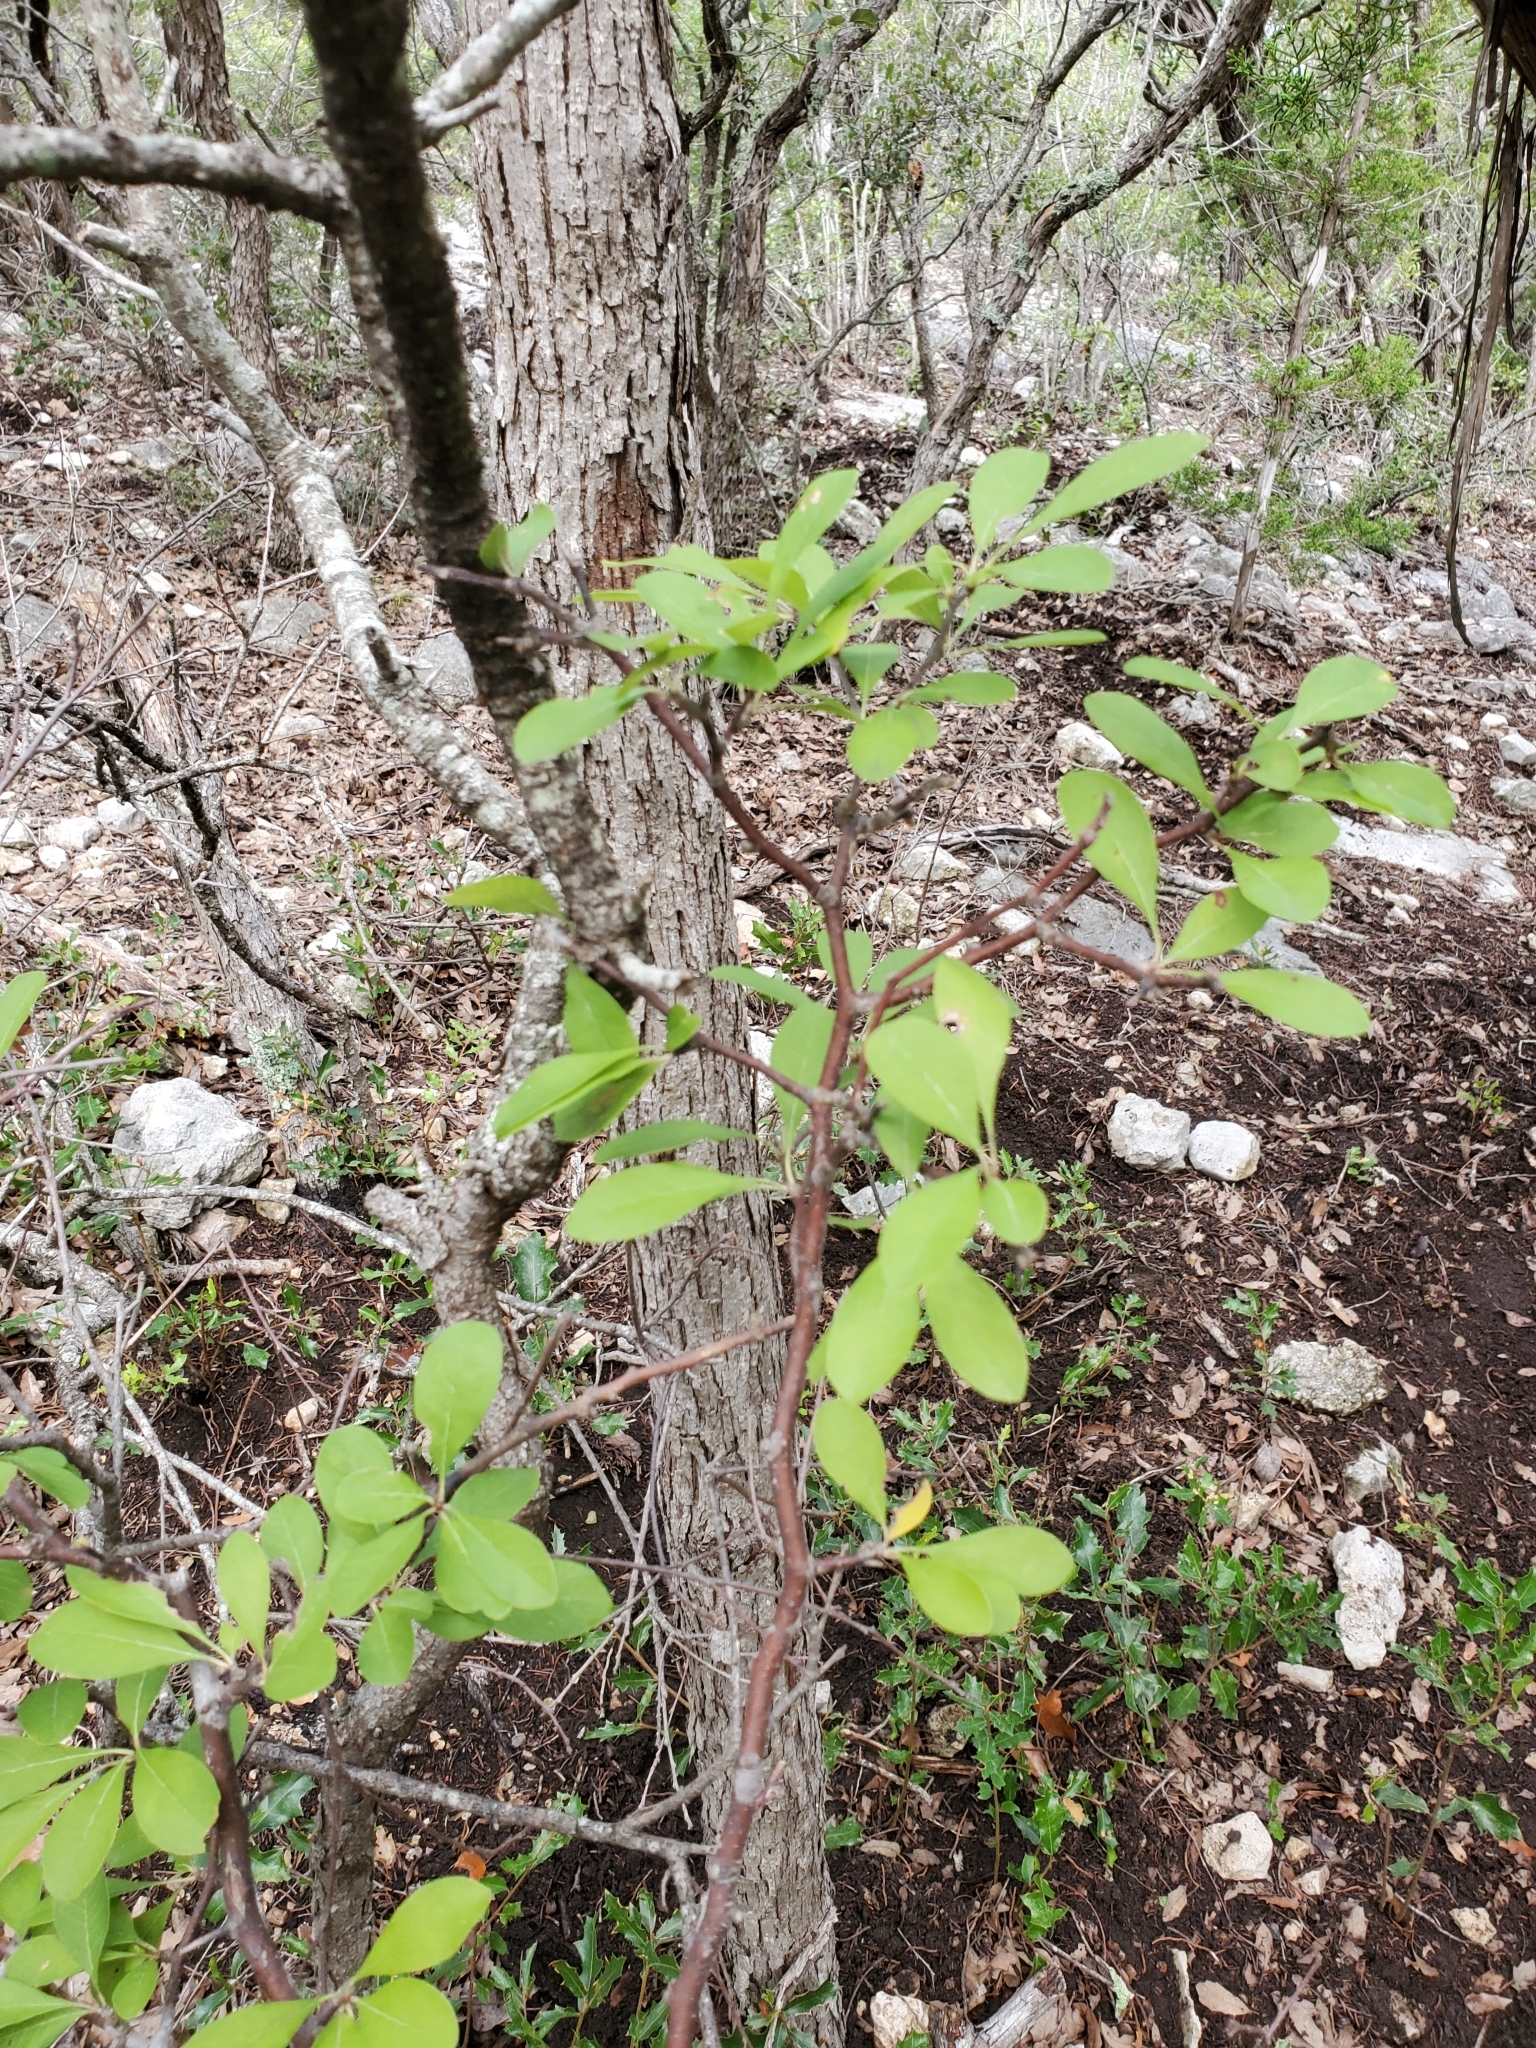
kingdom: Plantae
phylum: Tracheophyta
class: Magnoliopsida
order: Ericales
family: Sapotaceae
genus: Sideroxylon
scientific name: Sideroxylon lanuginosum
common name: Chittamwood
